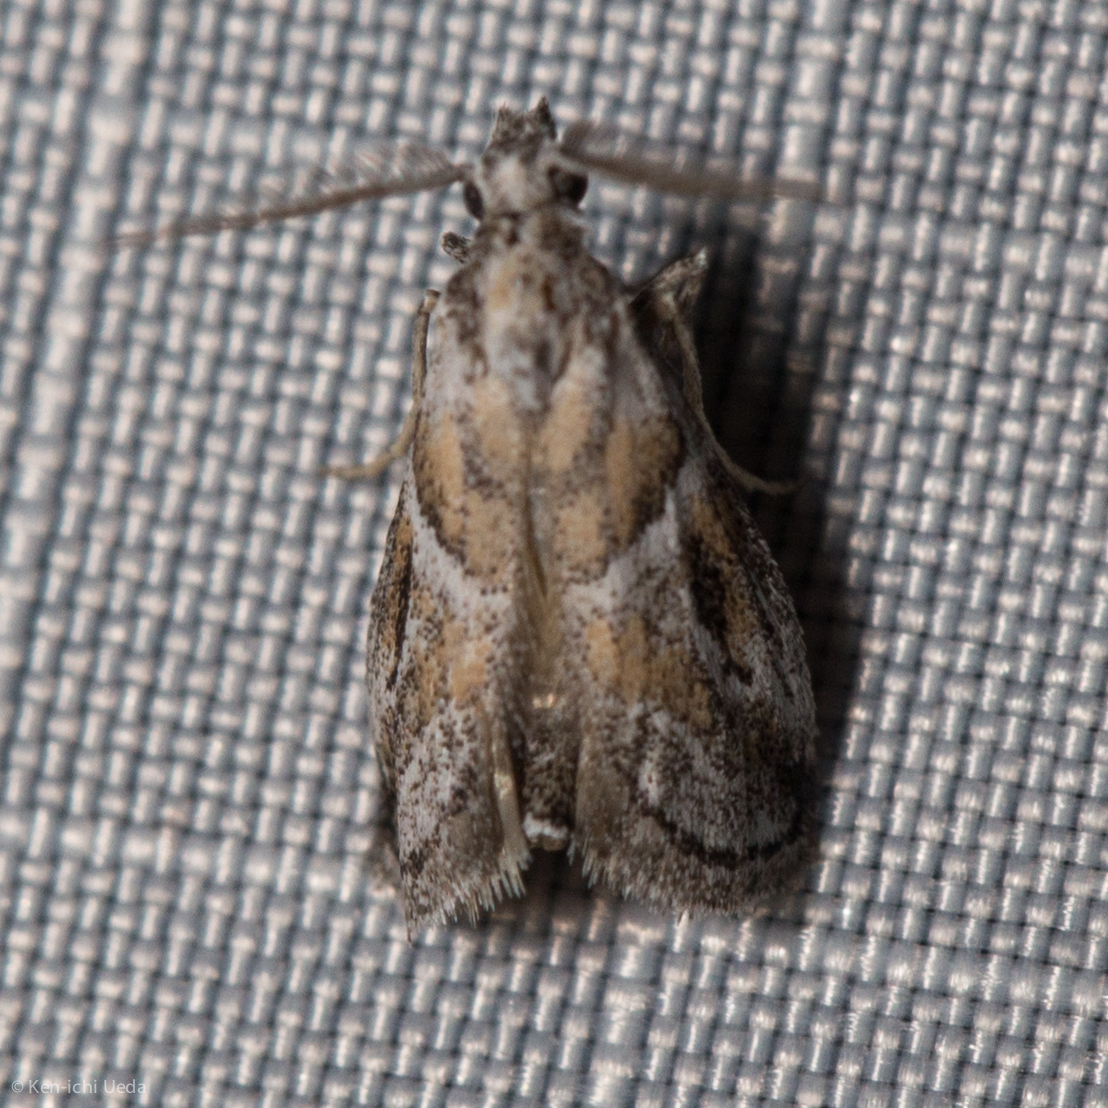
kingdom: Animalia
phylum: Arthropoda
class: Insecta
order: Lepidoptera
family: Pyralidae
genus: Alpheias
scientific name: Alpheias Decaturia pectinalis
